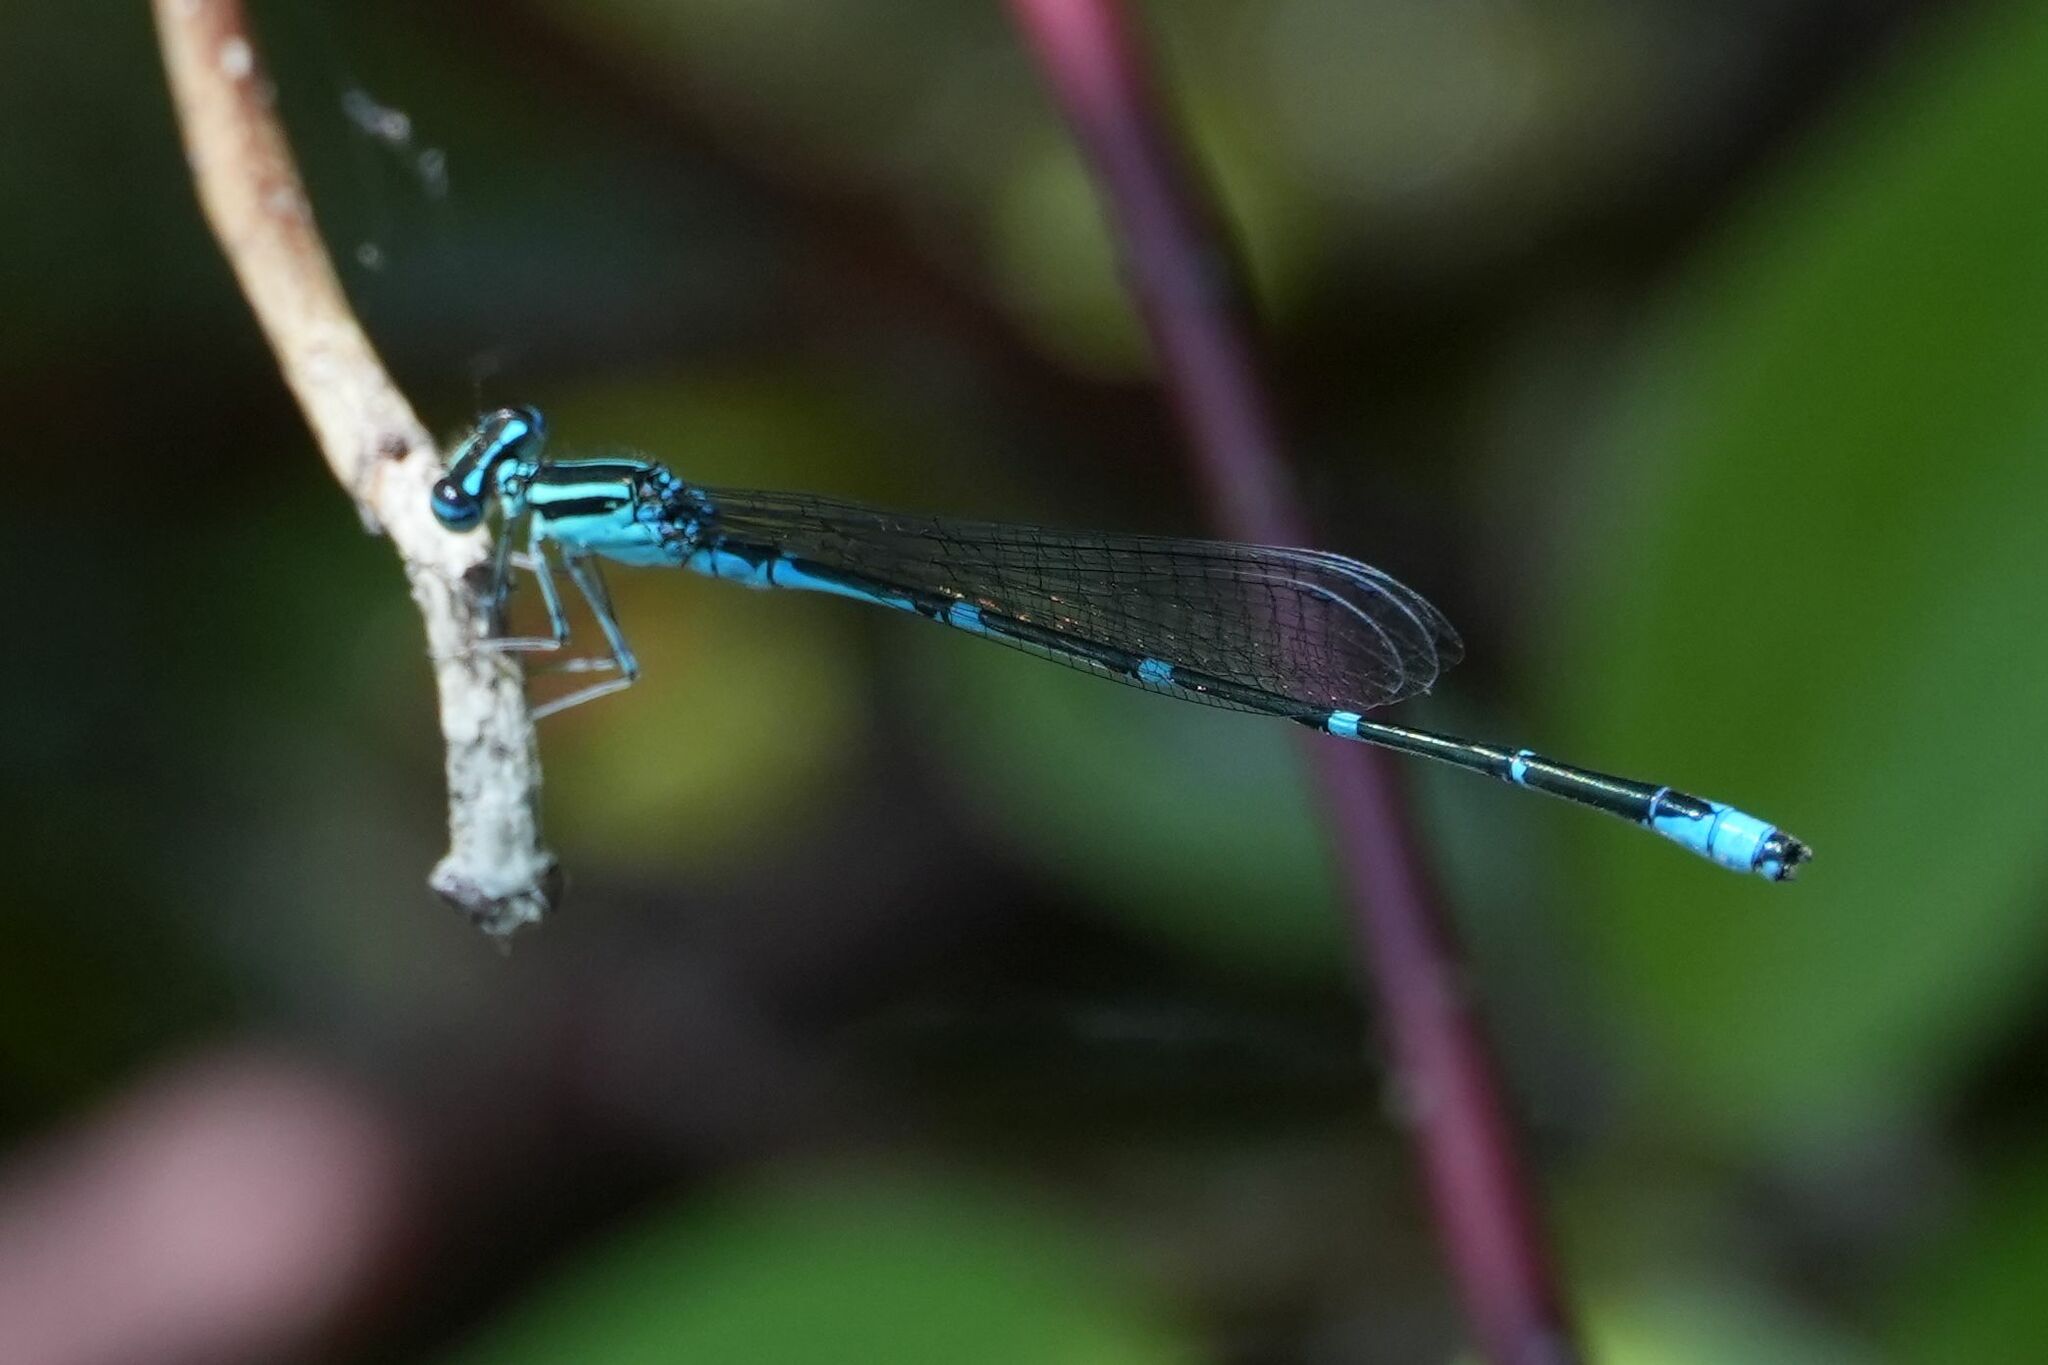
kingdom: Animalia
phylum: Arthropoda
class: Insecta
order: Odonata
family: Coenagrionidae
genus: Enallagma
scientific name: Enallagma exsulans
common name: Stream bluet
